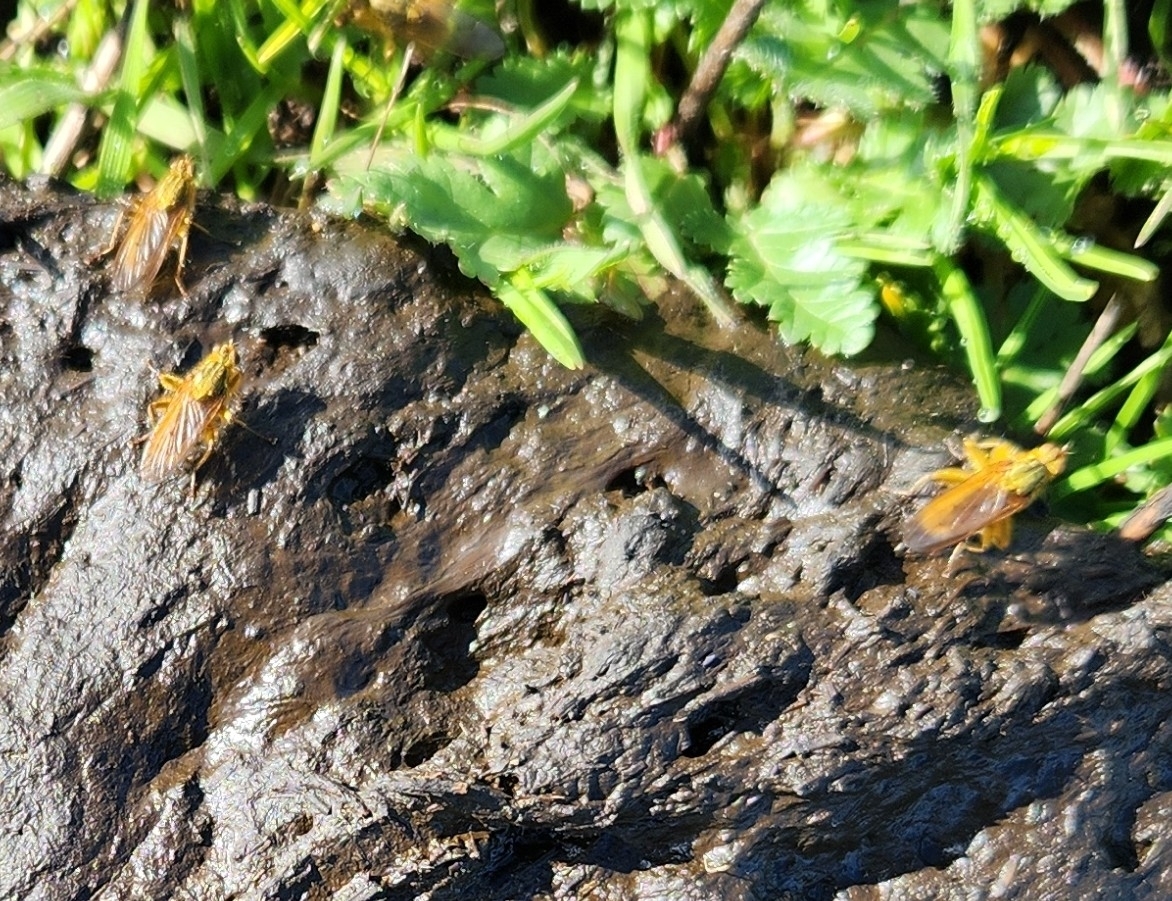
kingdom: Animalia
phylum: Arthropoda
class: Insecta
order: Diptera
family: Scathophagidae
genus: Scathophaga
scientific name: Scathophaga stercoraria
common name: Yellow dung fly
